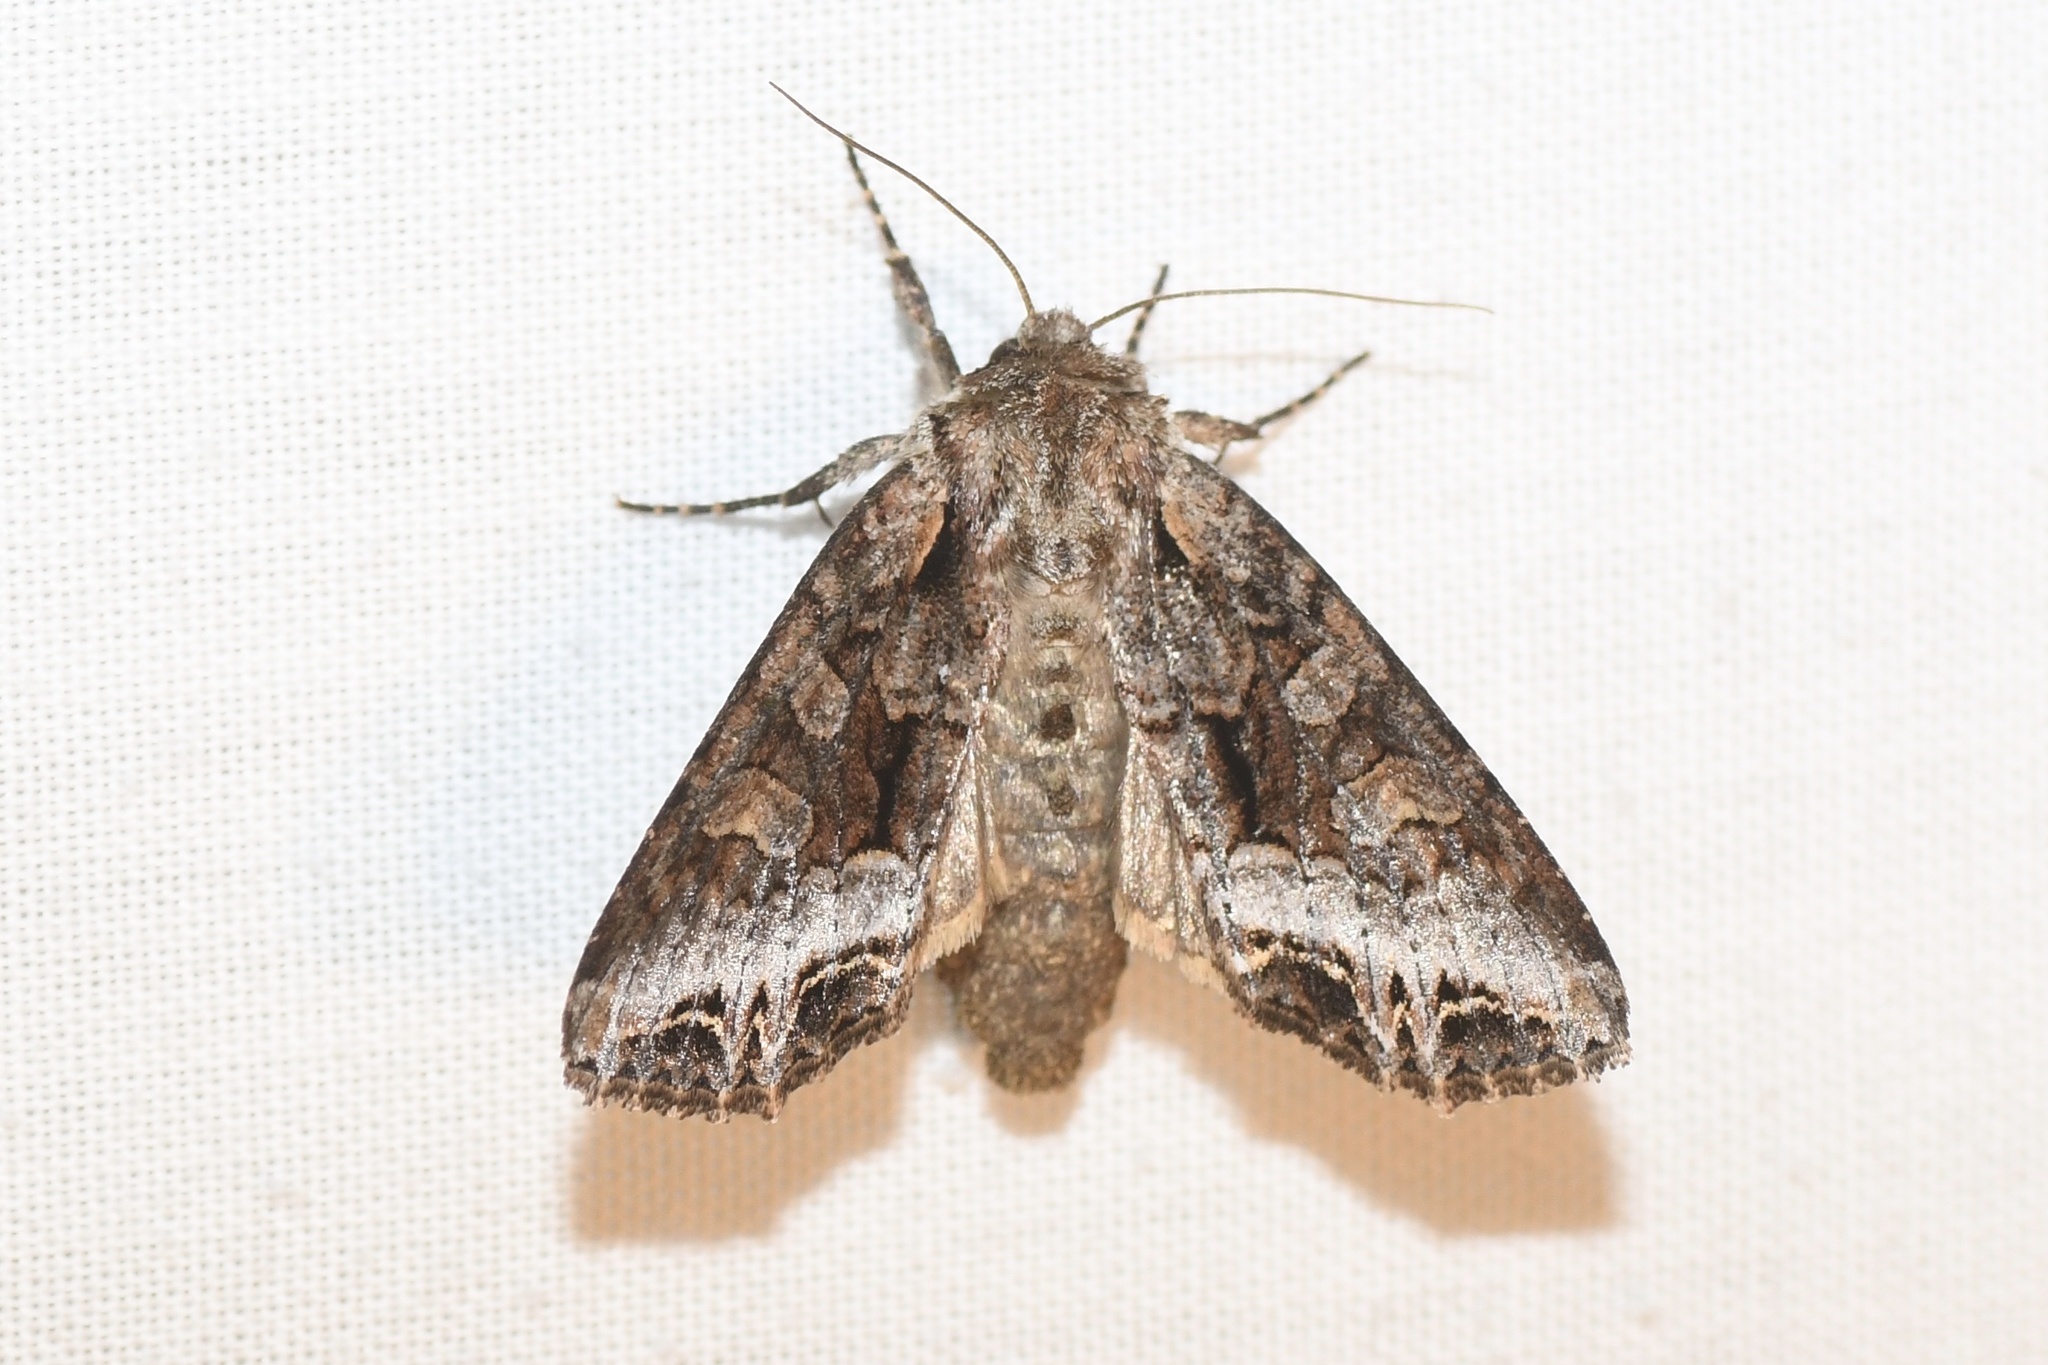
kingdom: Animalia
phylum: Arthropoda
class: Insecta
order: Lepidoptera
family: Noctuidae
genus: Lacanobia
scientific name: Lacanobia grandis
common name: Grand arches moth
